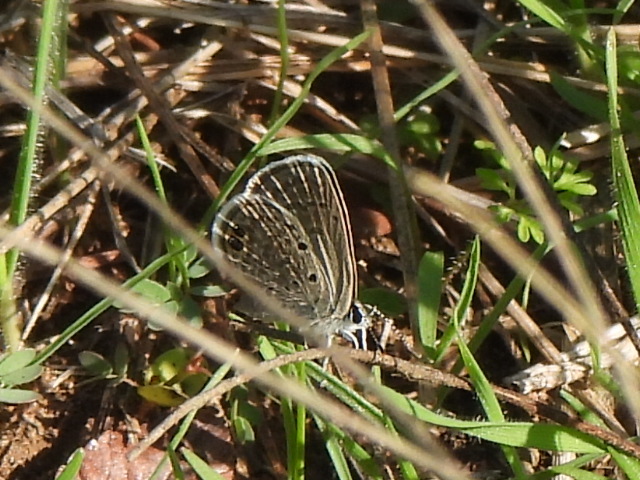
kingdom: Animalia
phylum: Arthropoda
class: Insecta
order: Lepidoptera
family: Lycaenidae
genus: Hemiargus
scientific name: Hemiargus ceraunus
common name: Ceraunus blue
